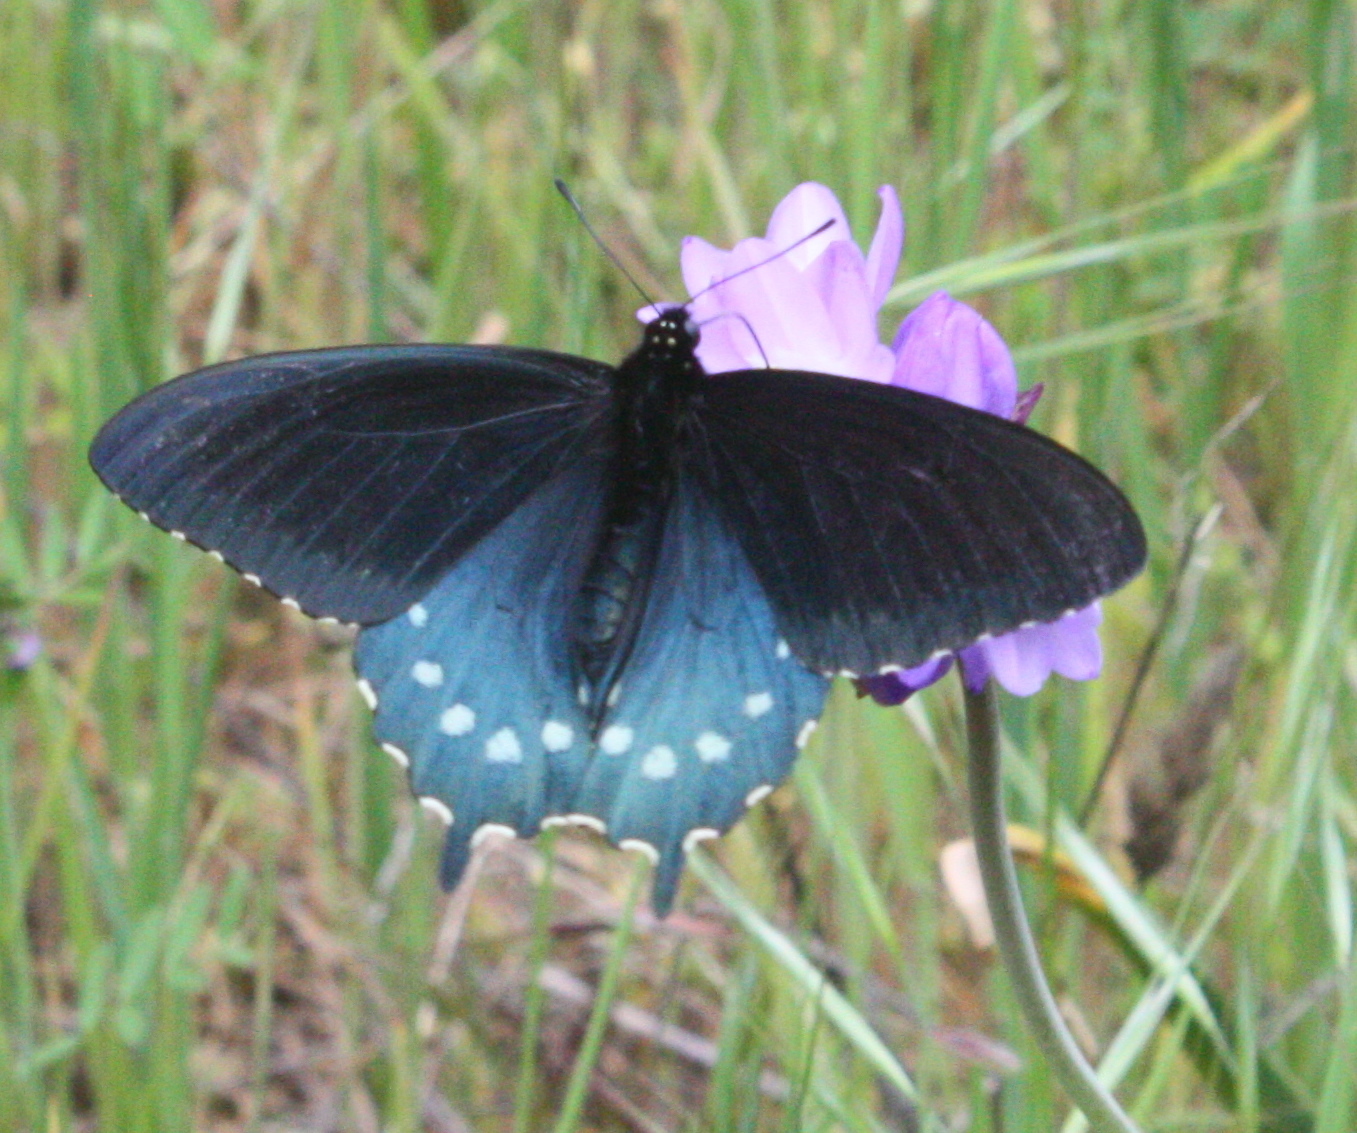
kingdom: Animalia
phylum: Arthropoda
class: Insecta
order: Lepidoptera
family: Papilionidae
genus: Battus
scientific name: Battus philenor
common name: Pipevine swallowtail
